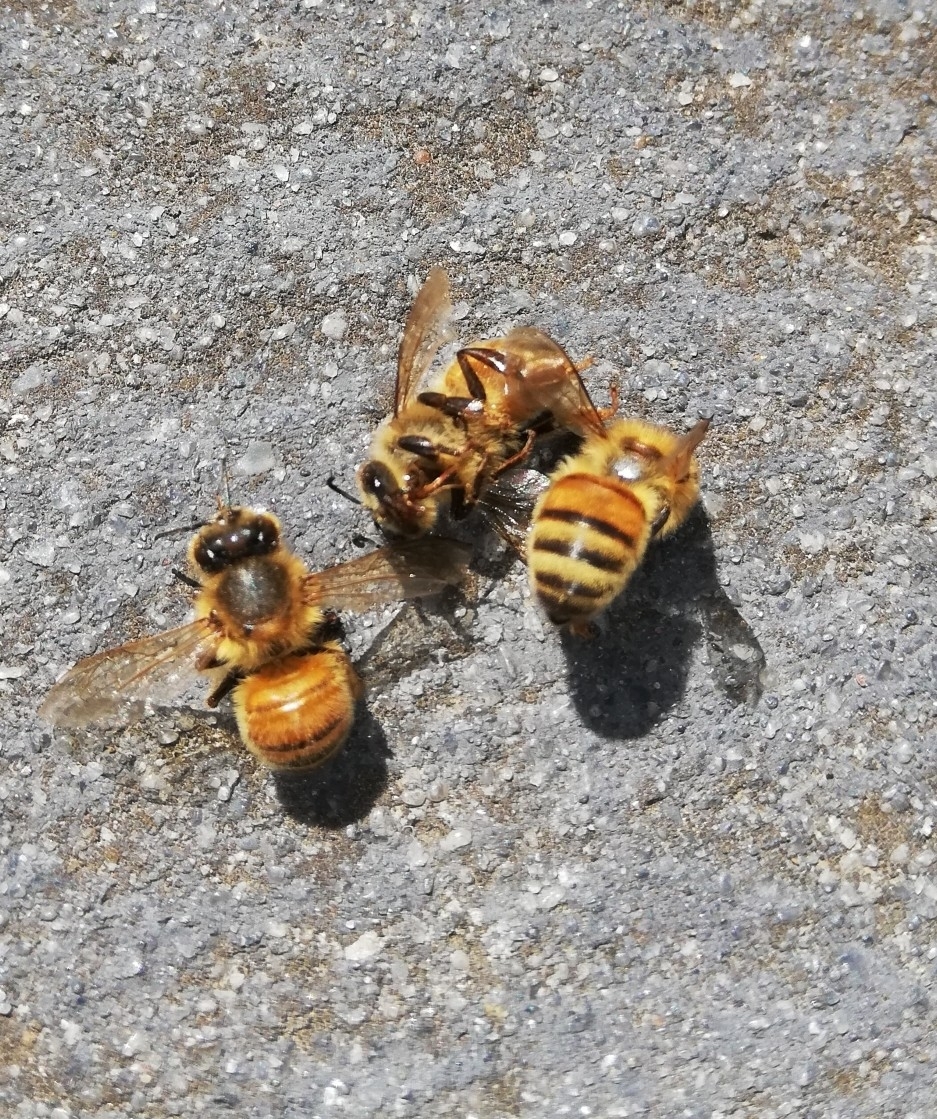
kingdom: Animalia
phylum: Arthropoda
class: Insecta
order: Hymenoptera
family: Apidae
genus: Apis
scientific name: Apis mellifera
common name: Honey bee
